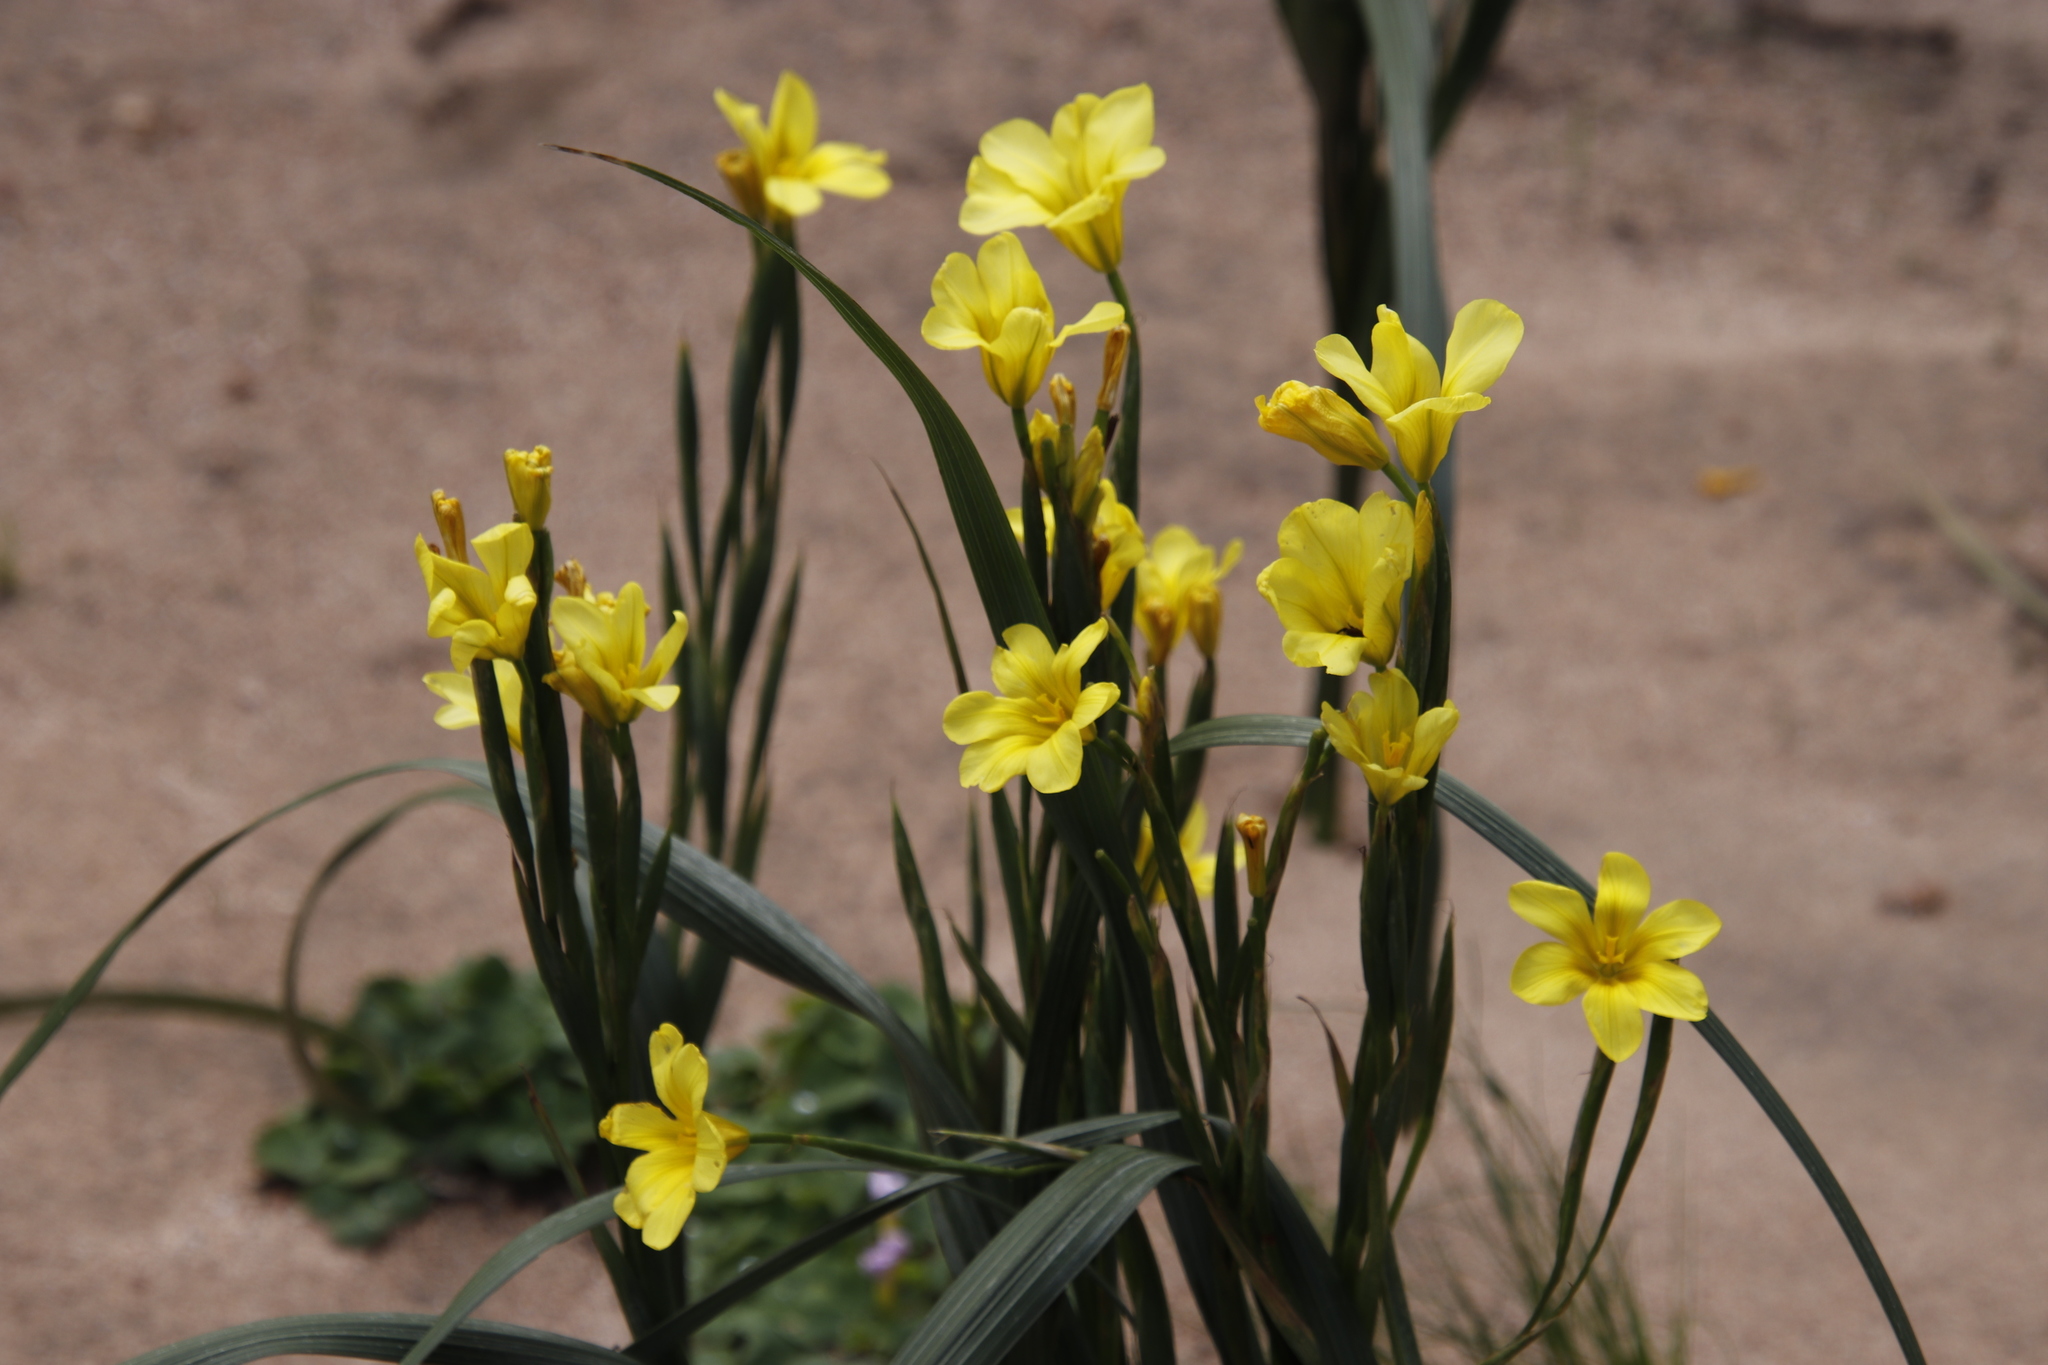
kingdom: Plantae
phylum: Tracheophyta
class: Liliopsida
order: Asparagales
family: Iridaceae
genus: Moraea
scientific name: Moraea ochroleuca
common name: Red tulp
